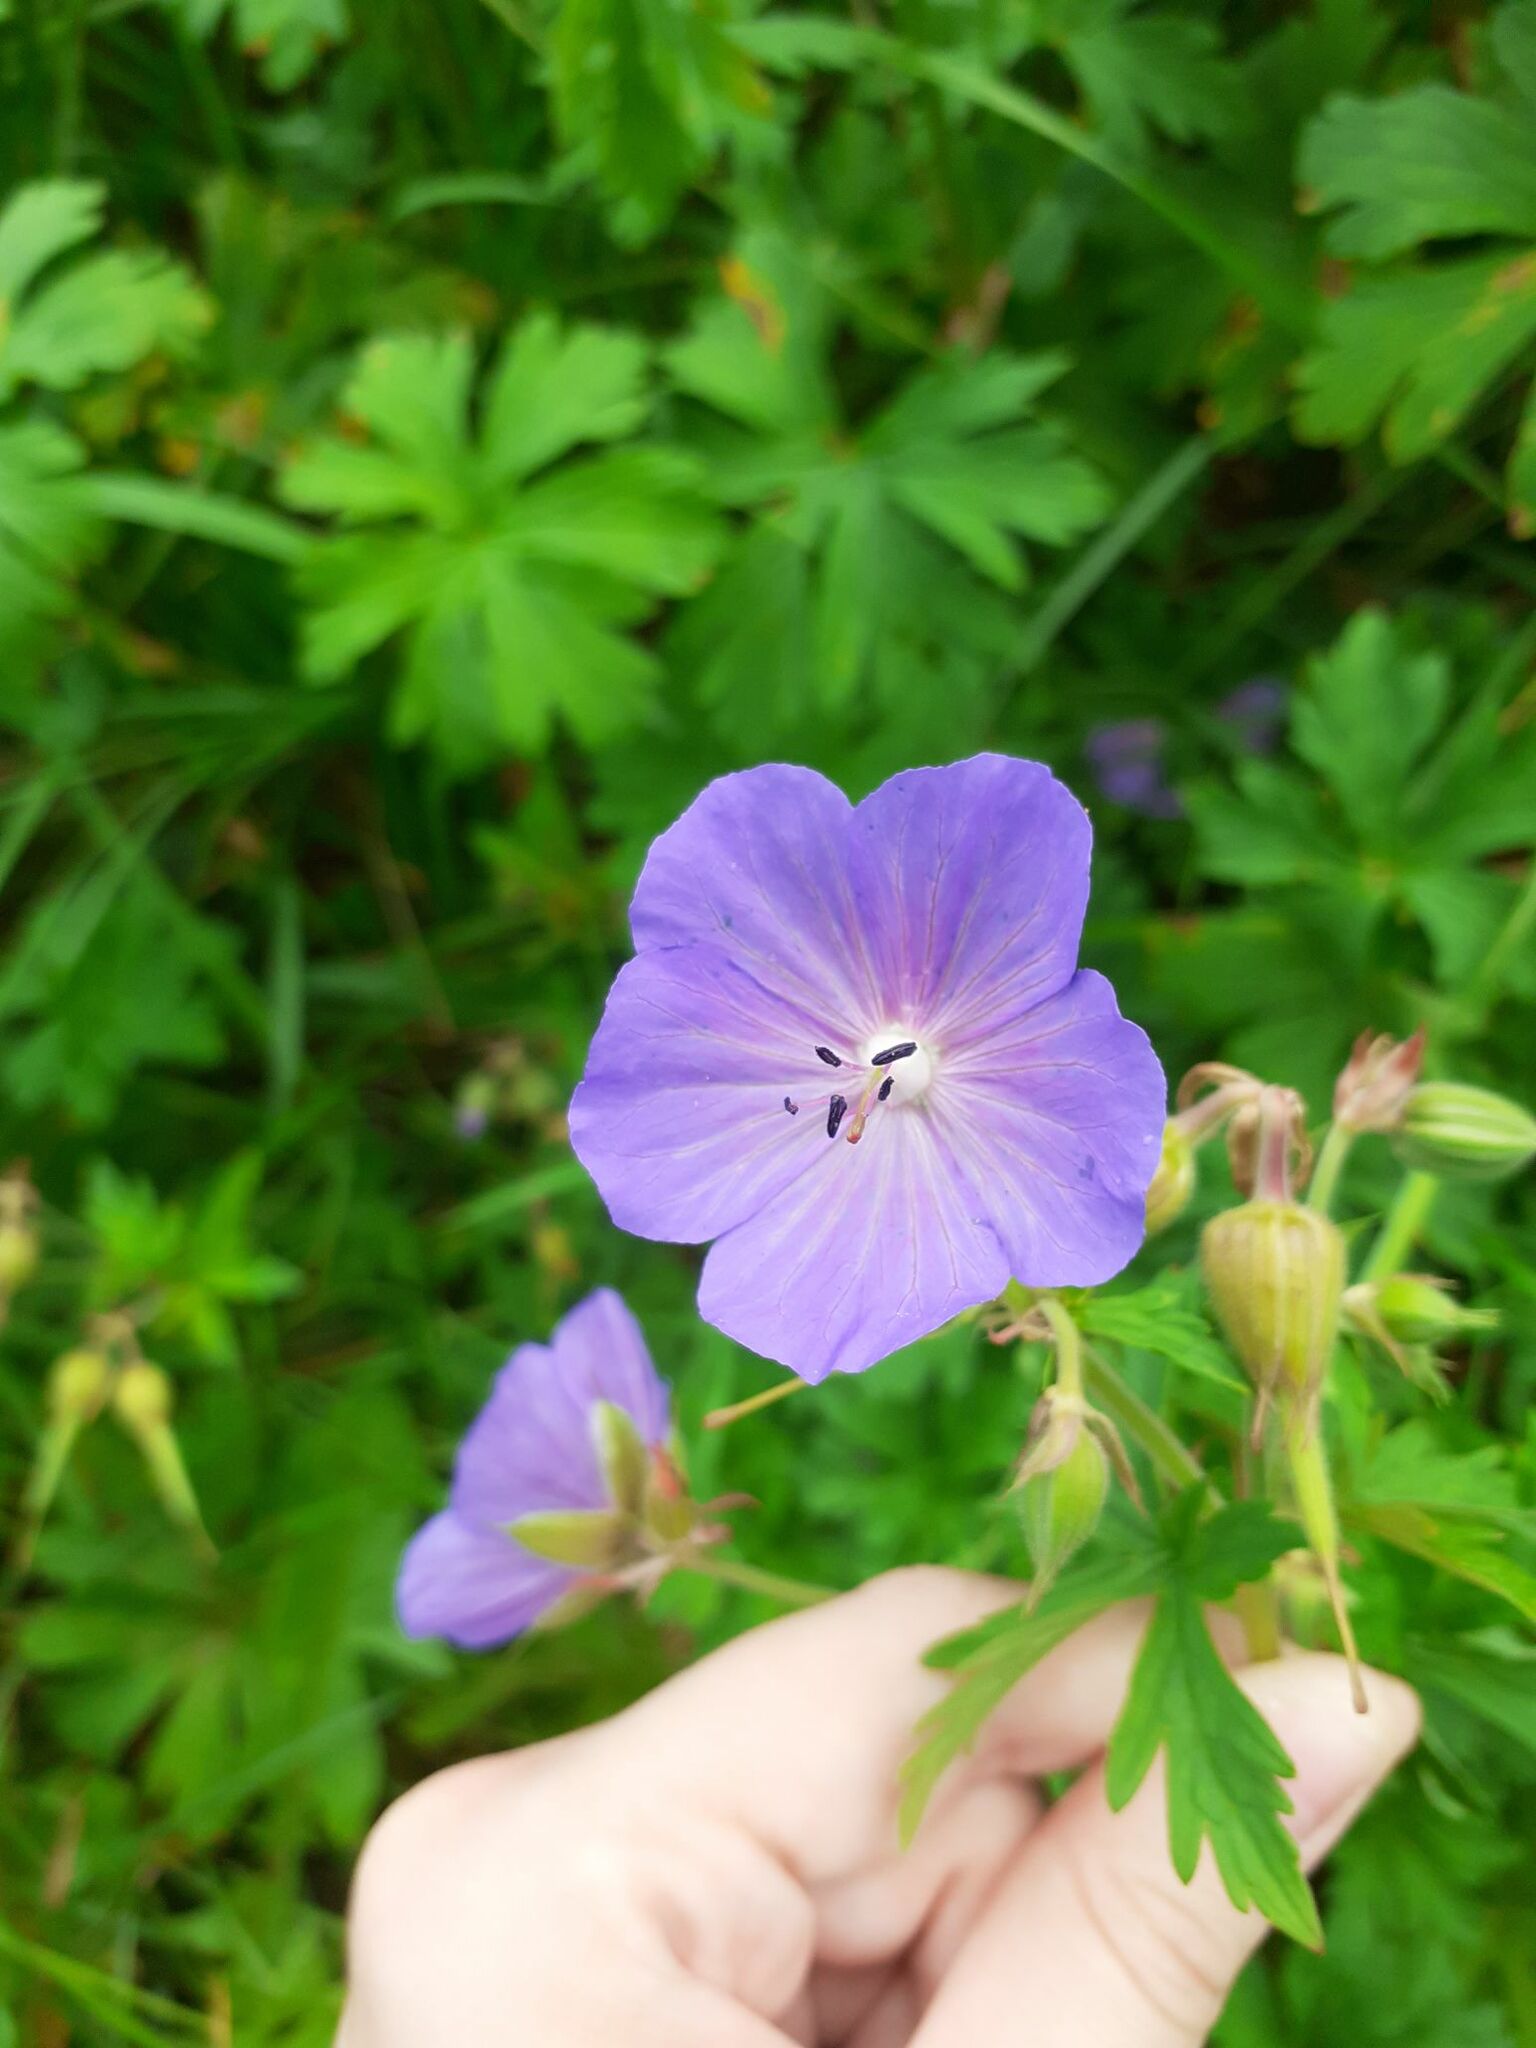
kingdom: Plantae
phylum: Tracheophyta
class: Magnoliopsida
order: Geraniales
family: Geraniaceae
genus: Geranium
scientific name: Geranium pratense
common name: Meadow crane's-bill
